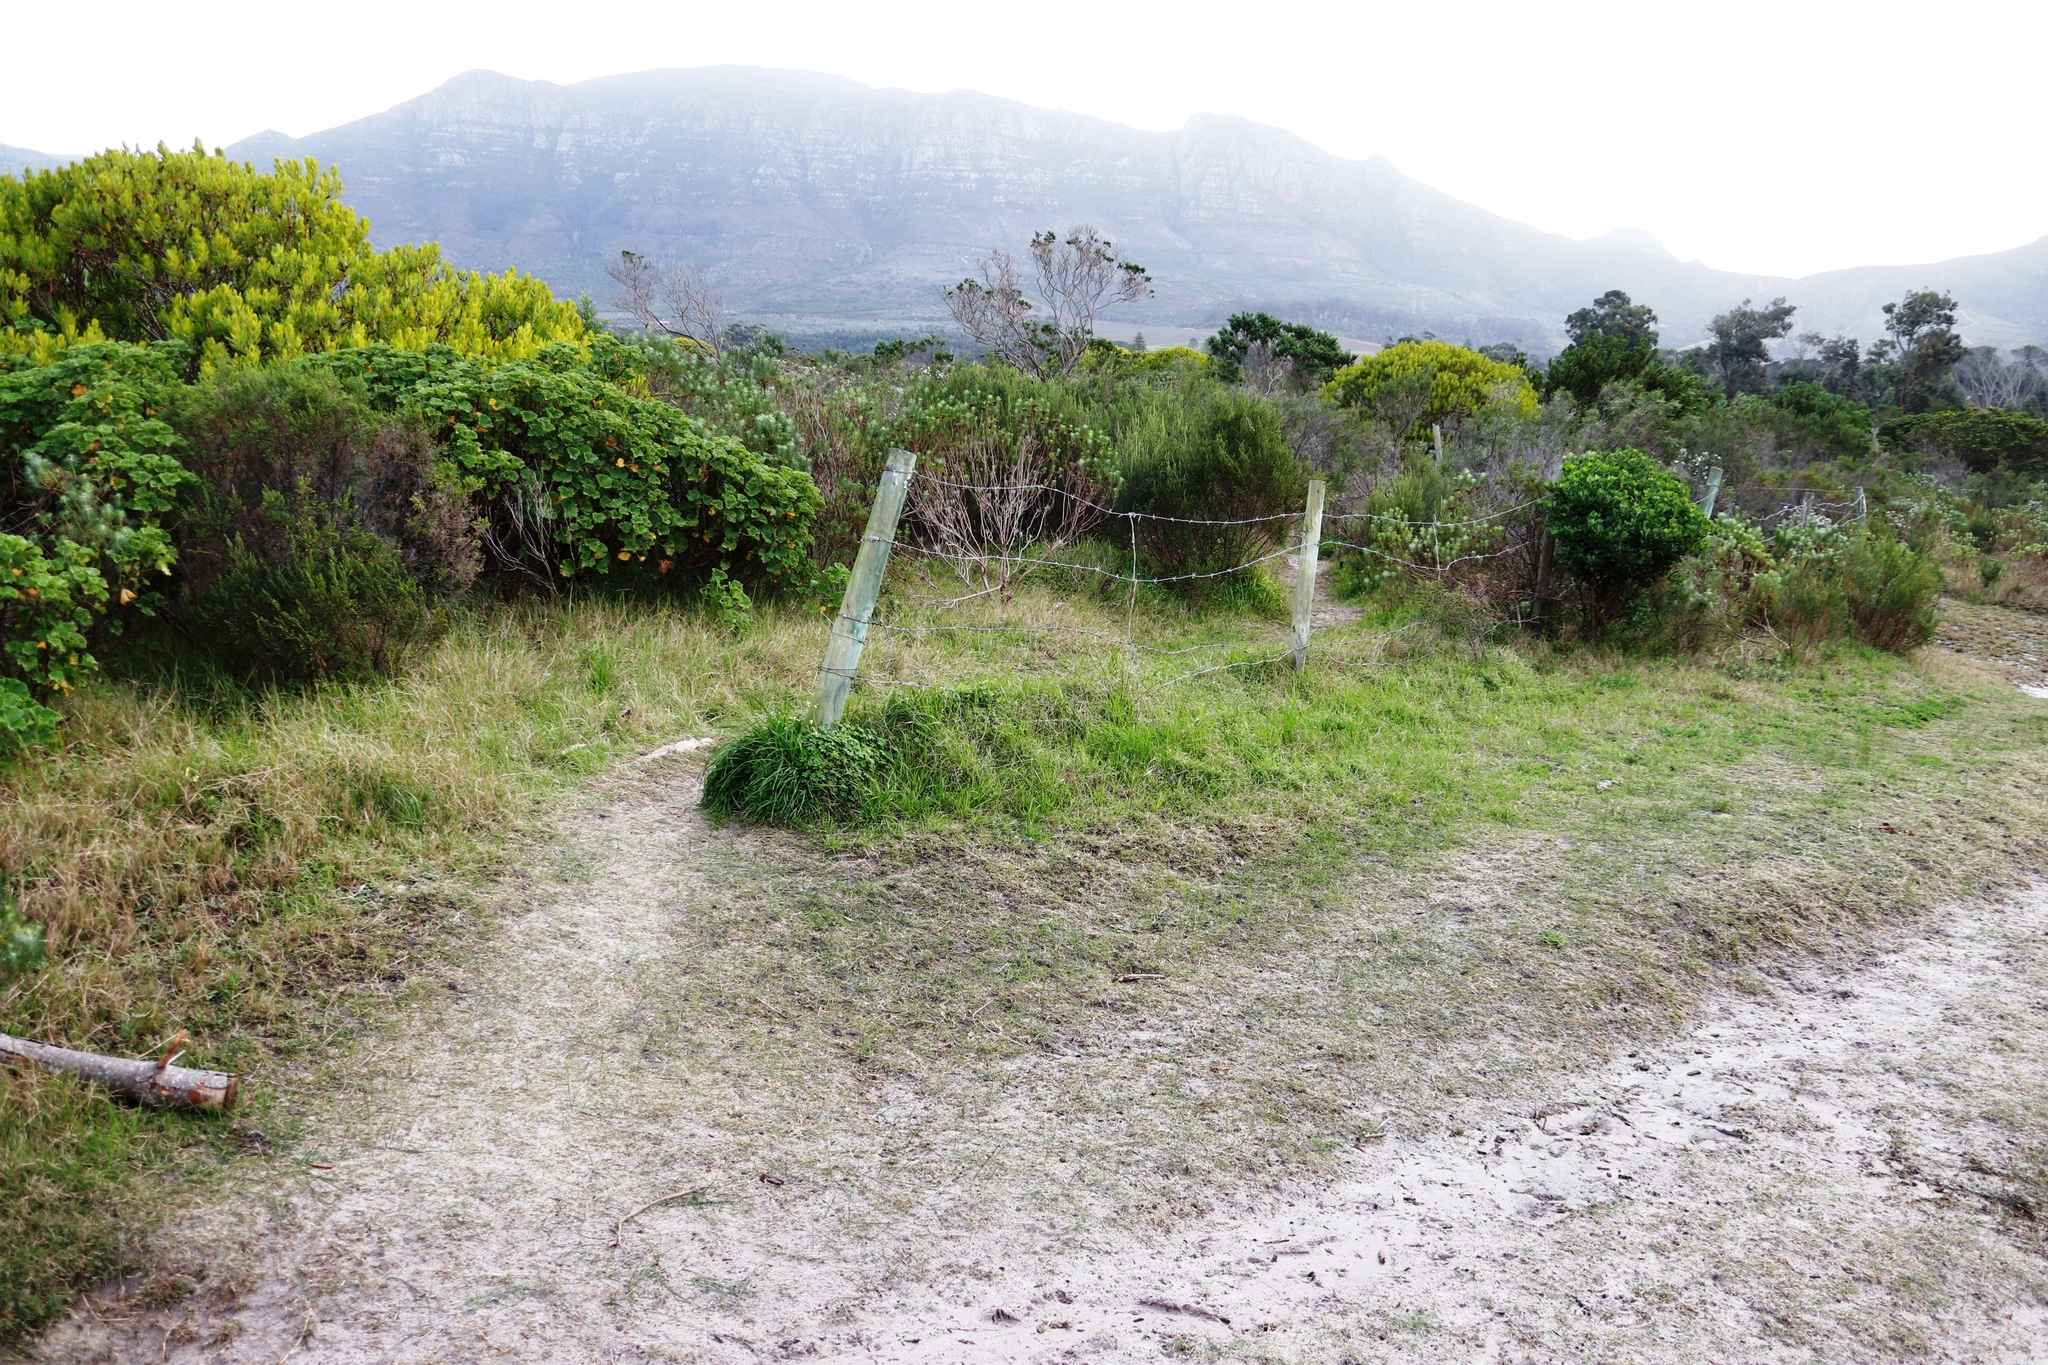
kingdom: Plantae
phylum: Tracheophyta
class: Magnoliopsida
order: Geraniales
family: Geraniaceae
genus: Pelargonium
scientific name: Pelargonium cucullatum
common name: Tree pelargonium
